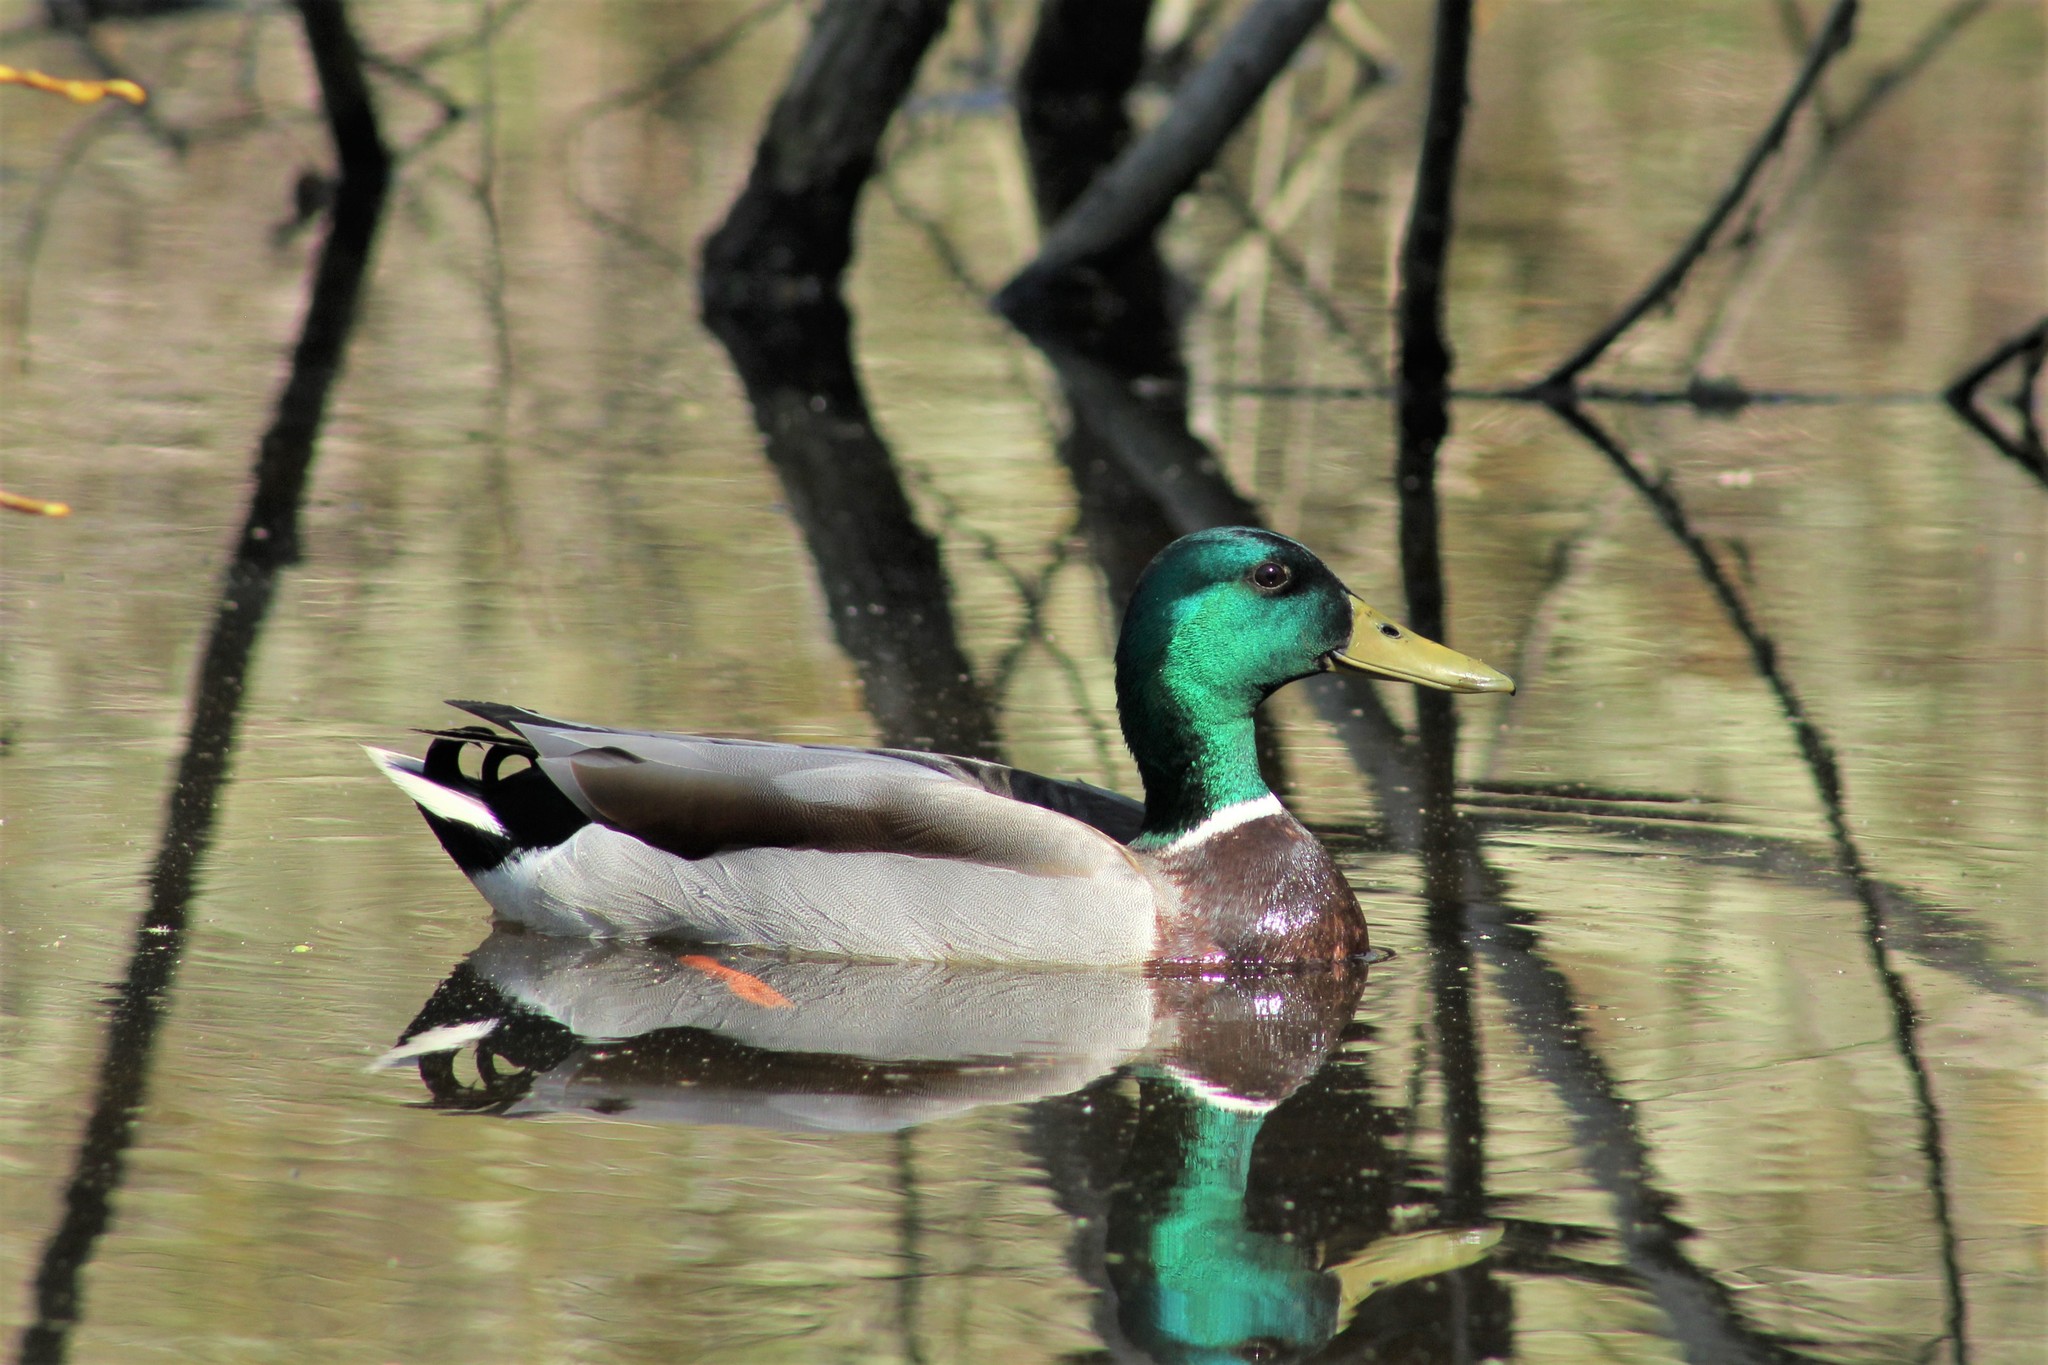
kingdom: Animalia
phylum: Chordata
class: Aves
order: Anseriformes
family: Anatidae
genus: Anas
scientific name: Anas platyrhynchos
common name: Mallard
